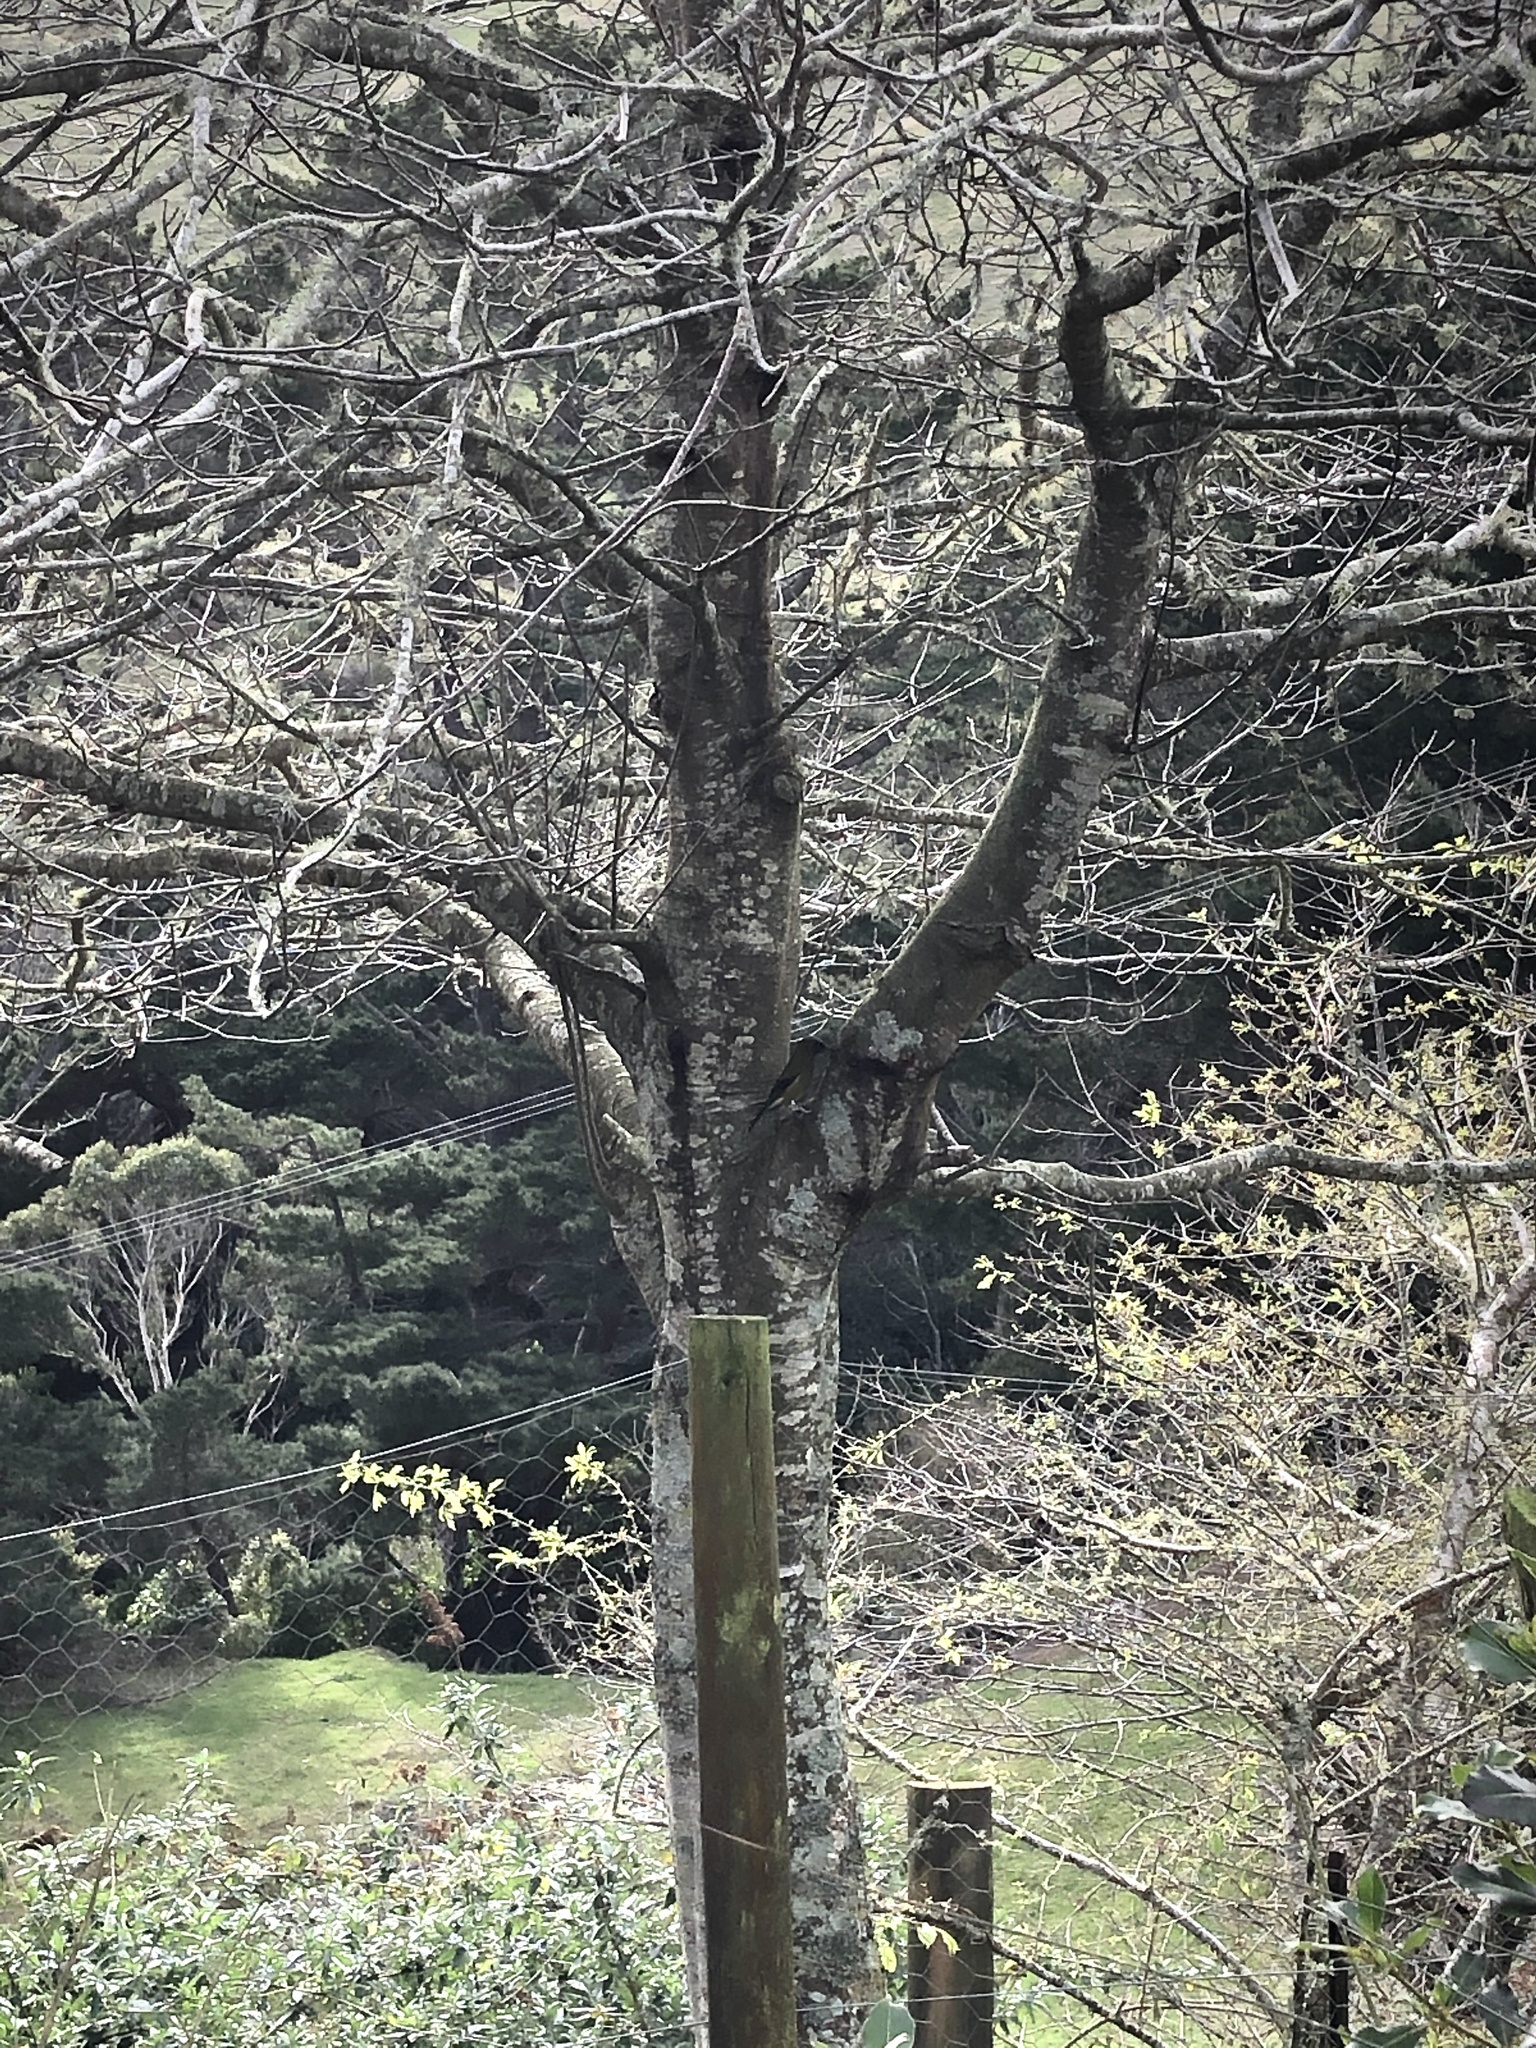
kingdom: Animalia
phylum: Chordata
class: Aves
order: Passeriformes
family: Meliphagidae
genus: Anthornis
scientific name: Anthornis melanura
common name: New zealand bellbird
